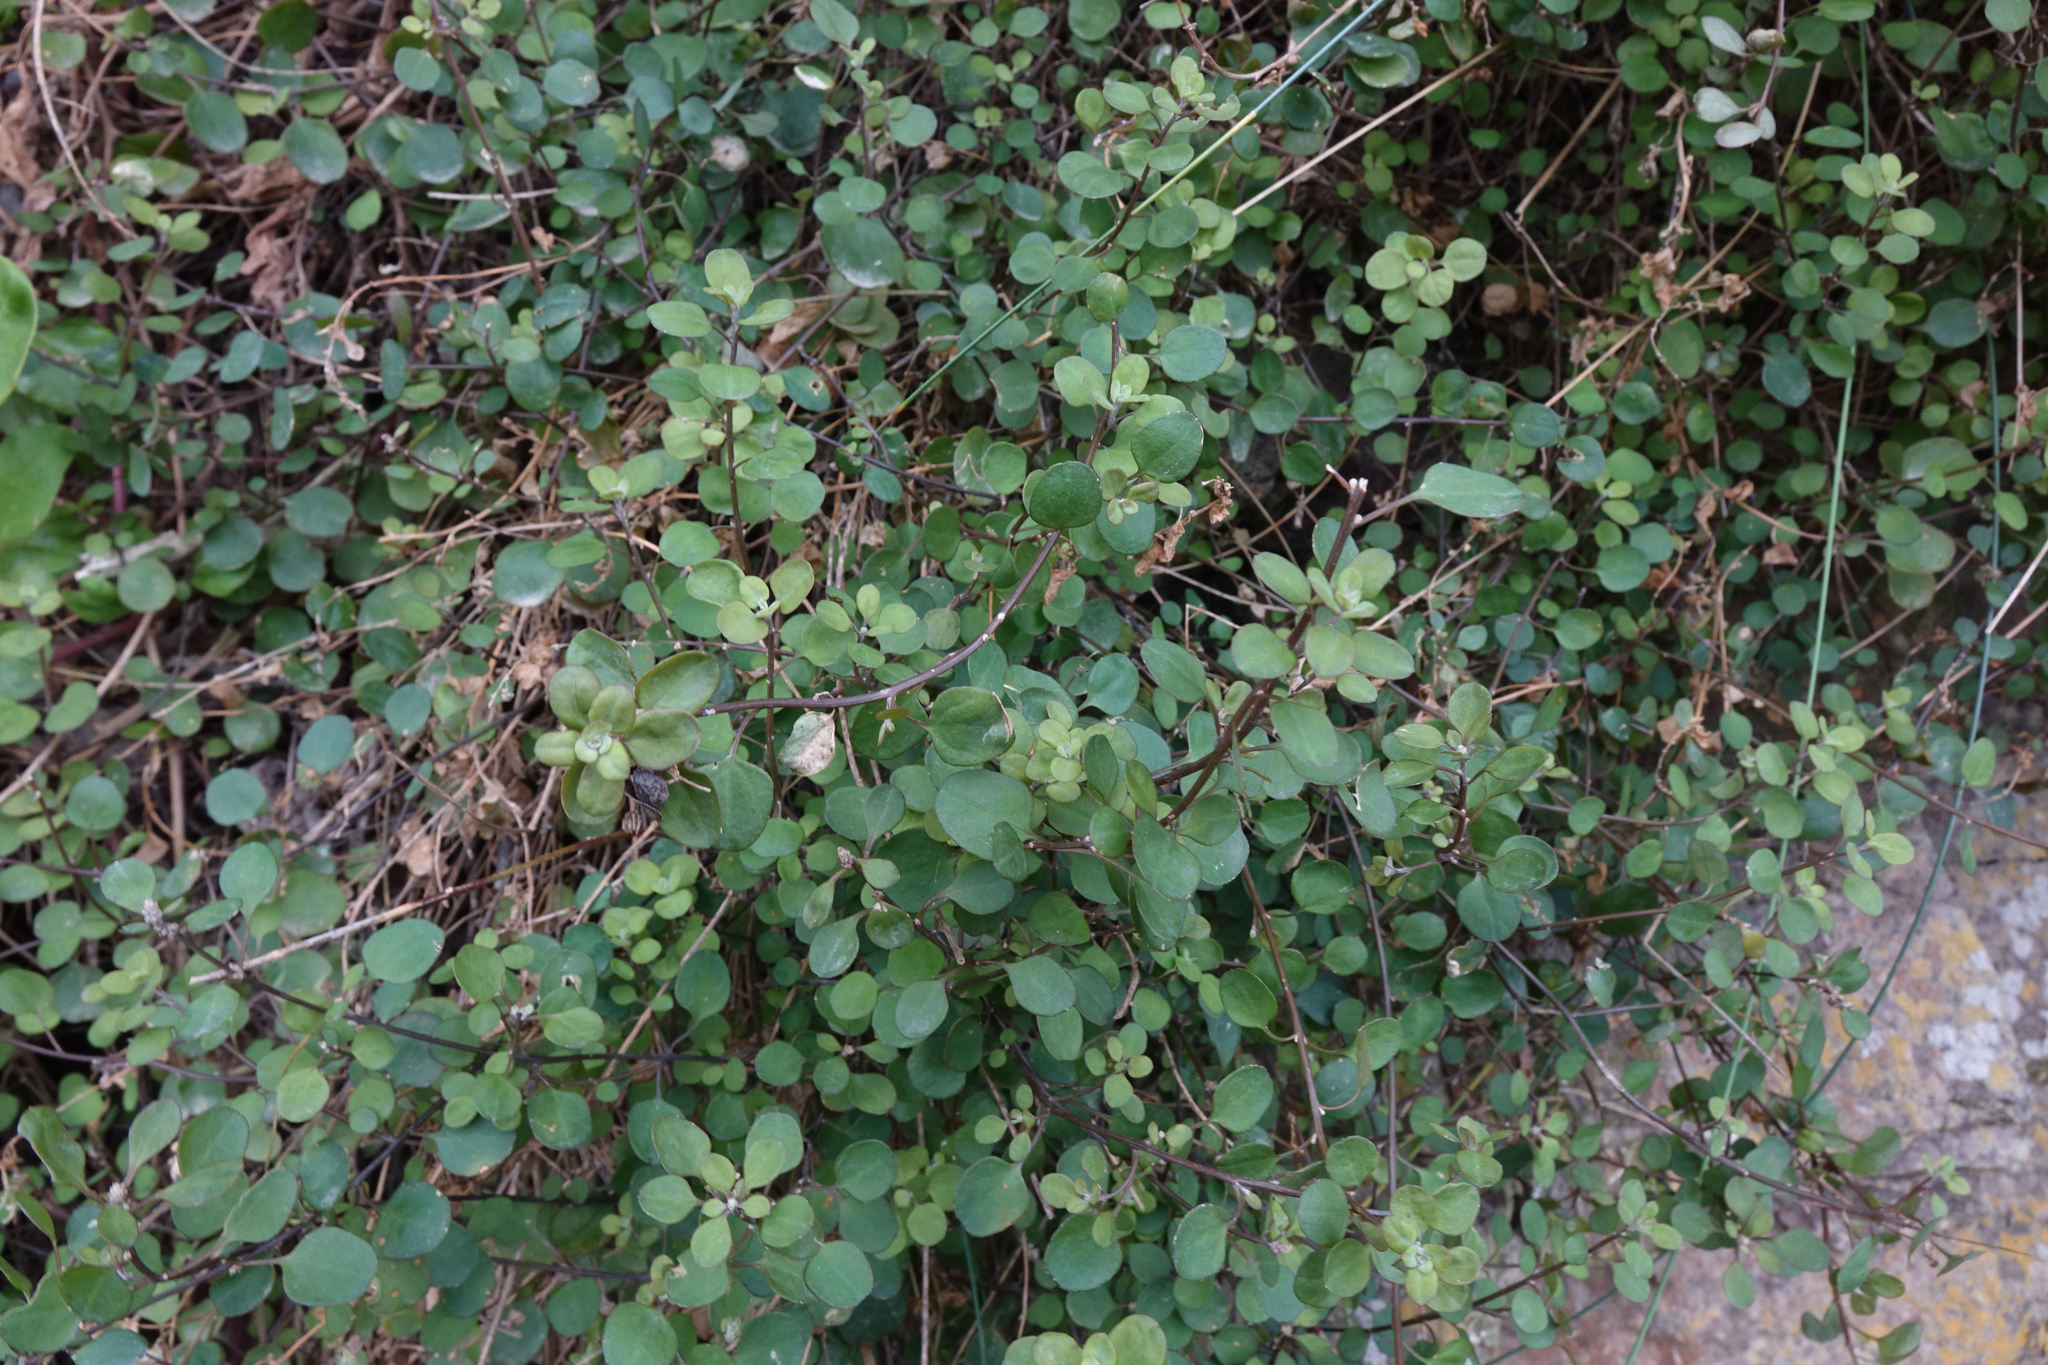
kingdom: Plantae
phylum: Tracheophyta
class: Magnoliopsida
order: Caryophyllales
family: Amaranthaceae
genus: Chenopodium
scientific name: Chenopodium allanii
